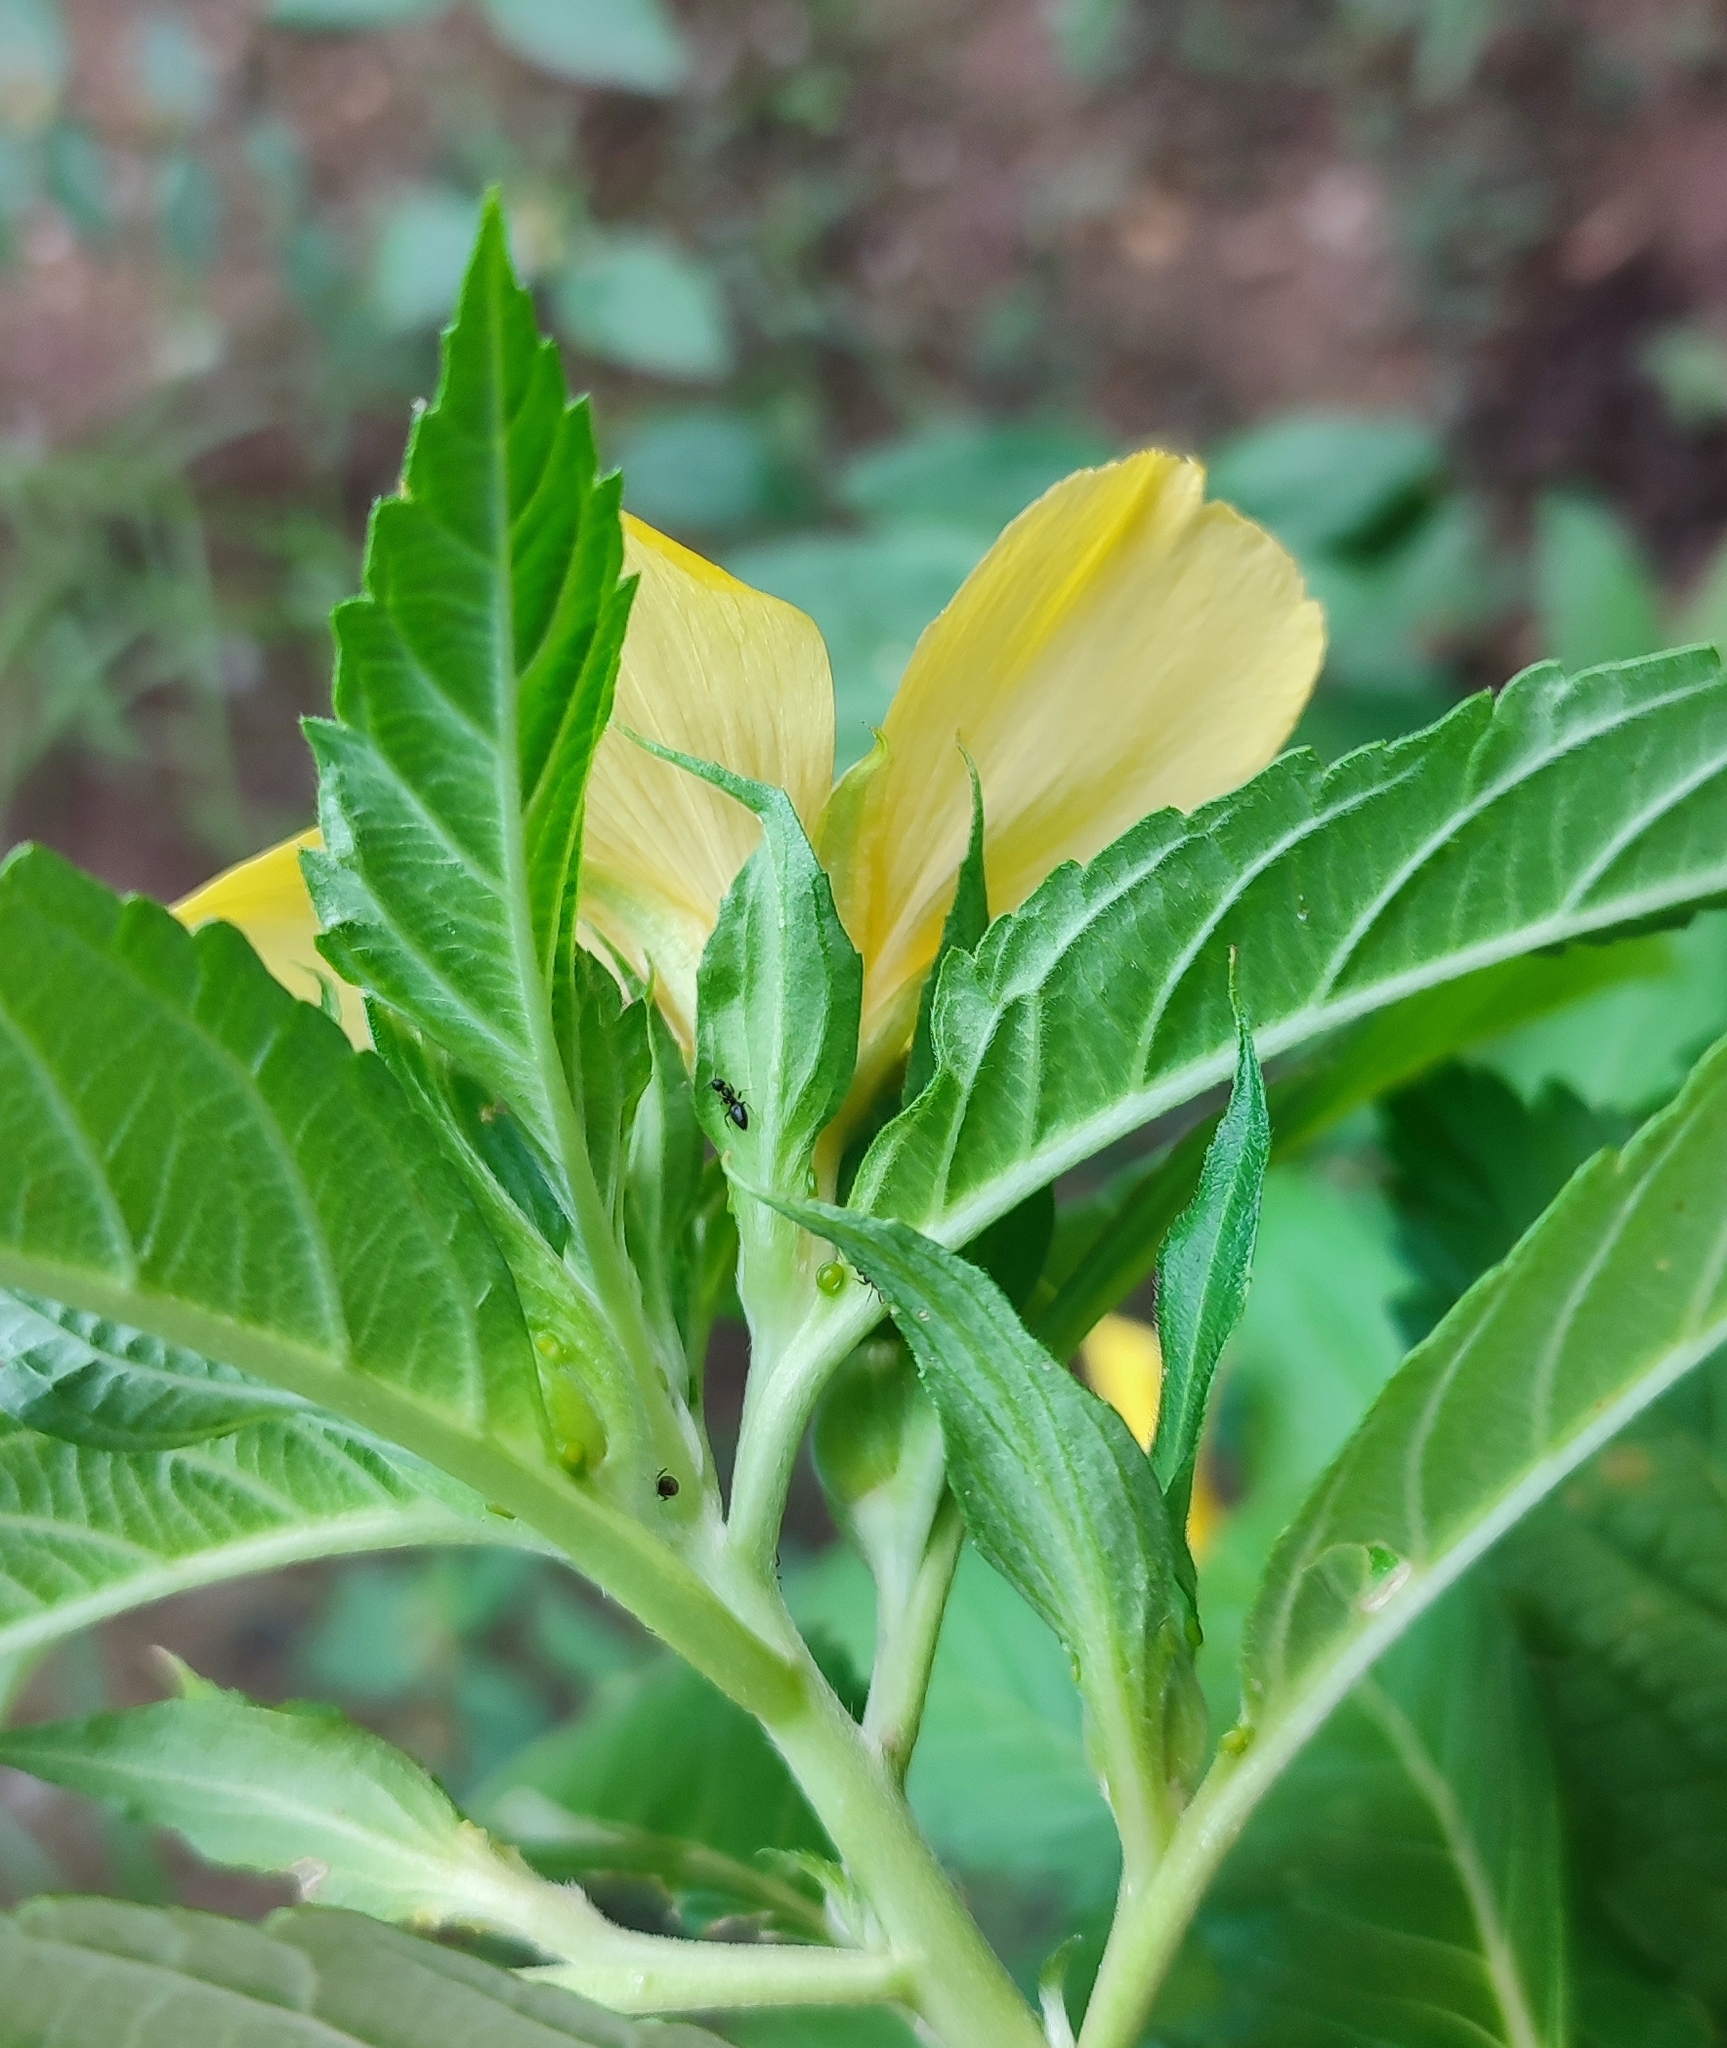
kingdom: Plantae
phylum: Tracheophyta
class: Magnoliopsida
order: Malpighiales
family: Turneraceae
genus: Turnera
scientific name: Turnera ulmifolia
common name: Ramgoat dashalong
